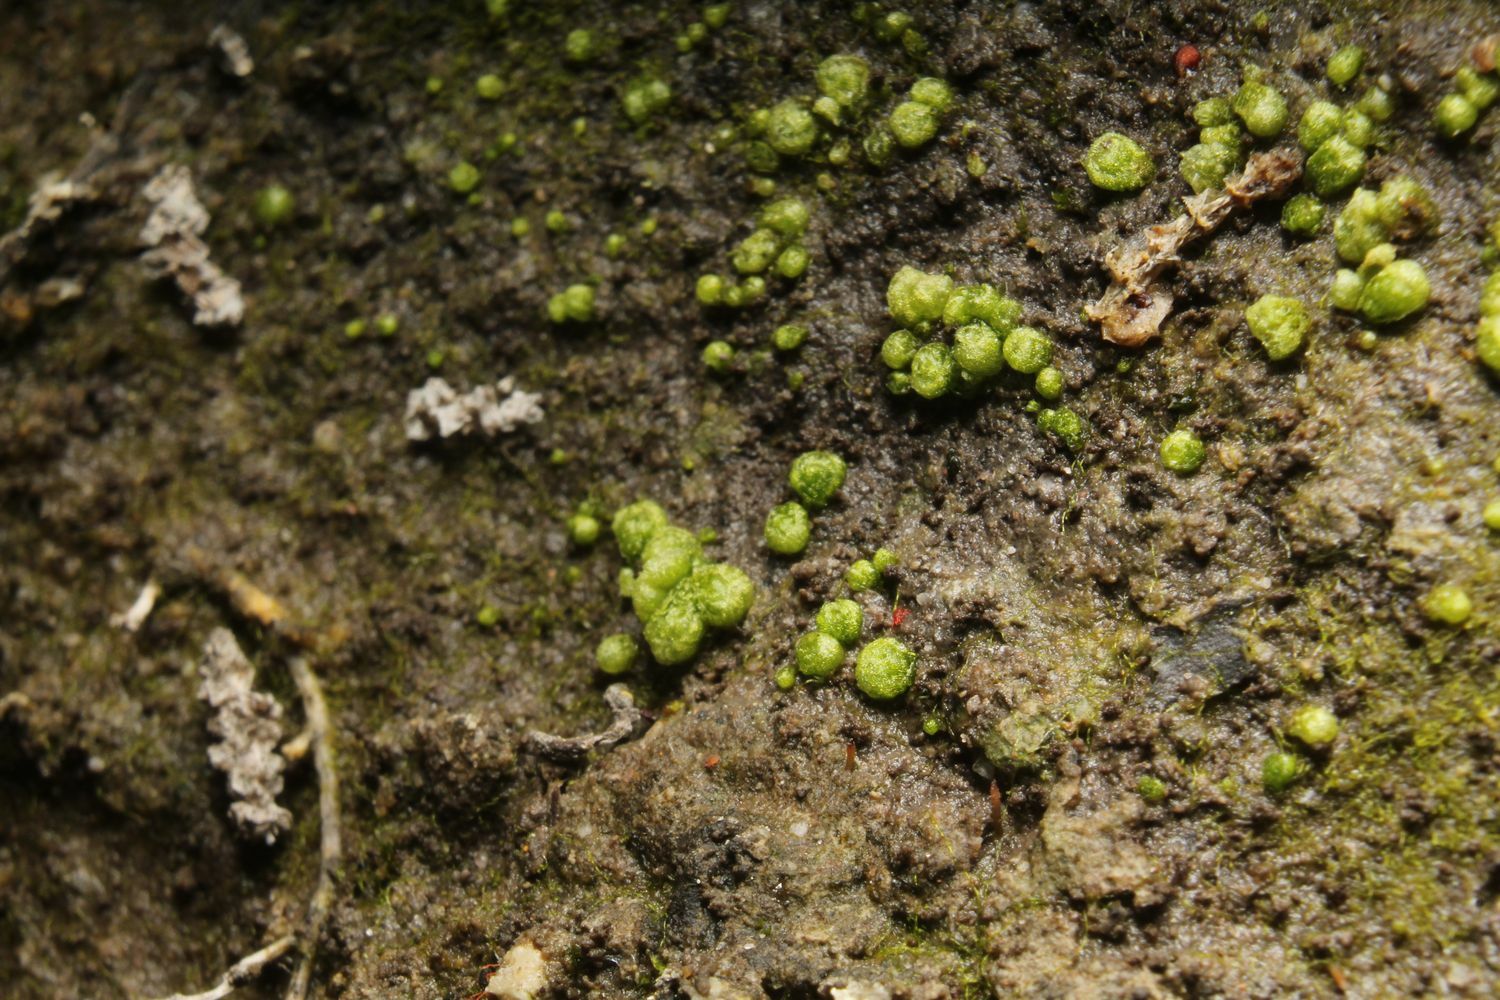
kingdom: Plantae
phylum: Marchantiophyta
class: Marchantiopsida
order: Sphaerocarpales
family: Monocarpaceae
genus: Monocarpus
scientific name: Monocarpus sphaerocarpus
